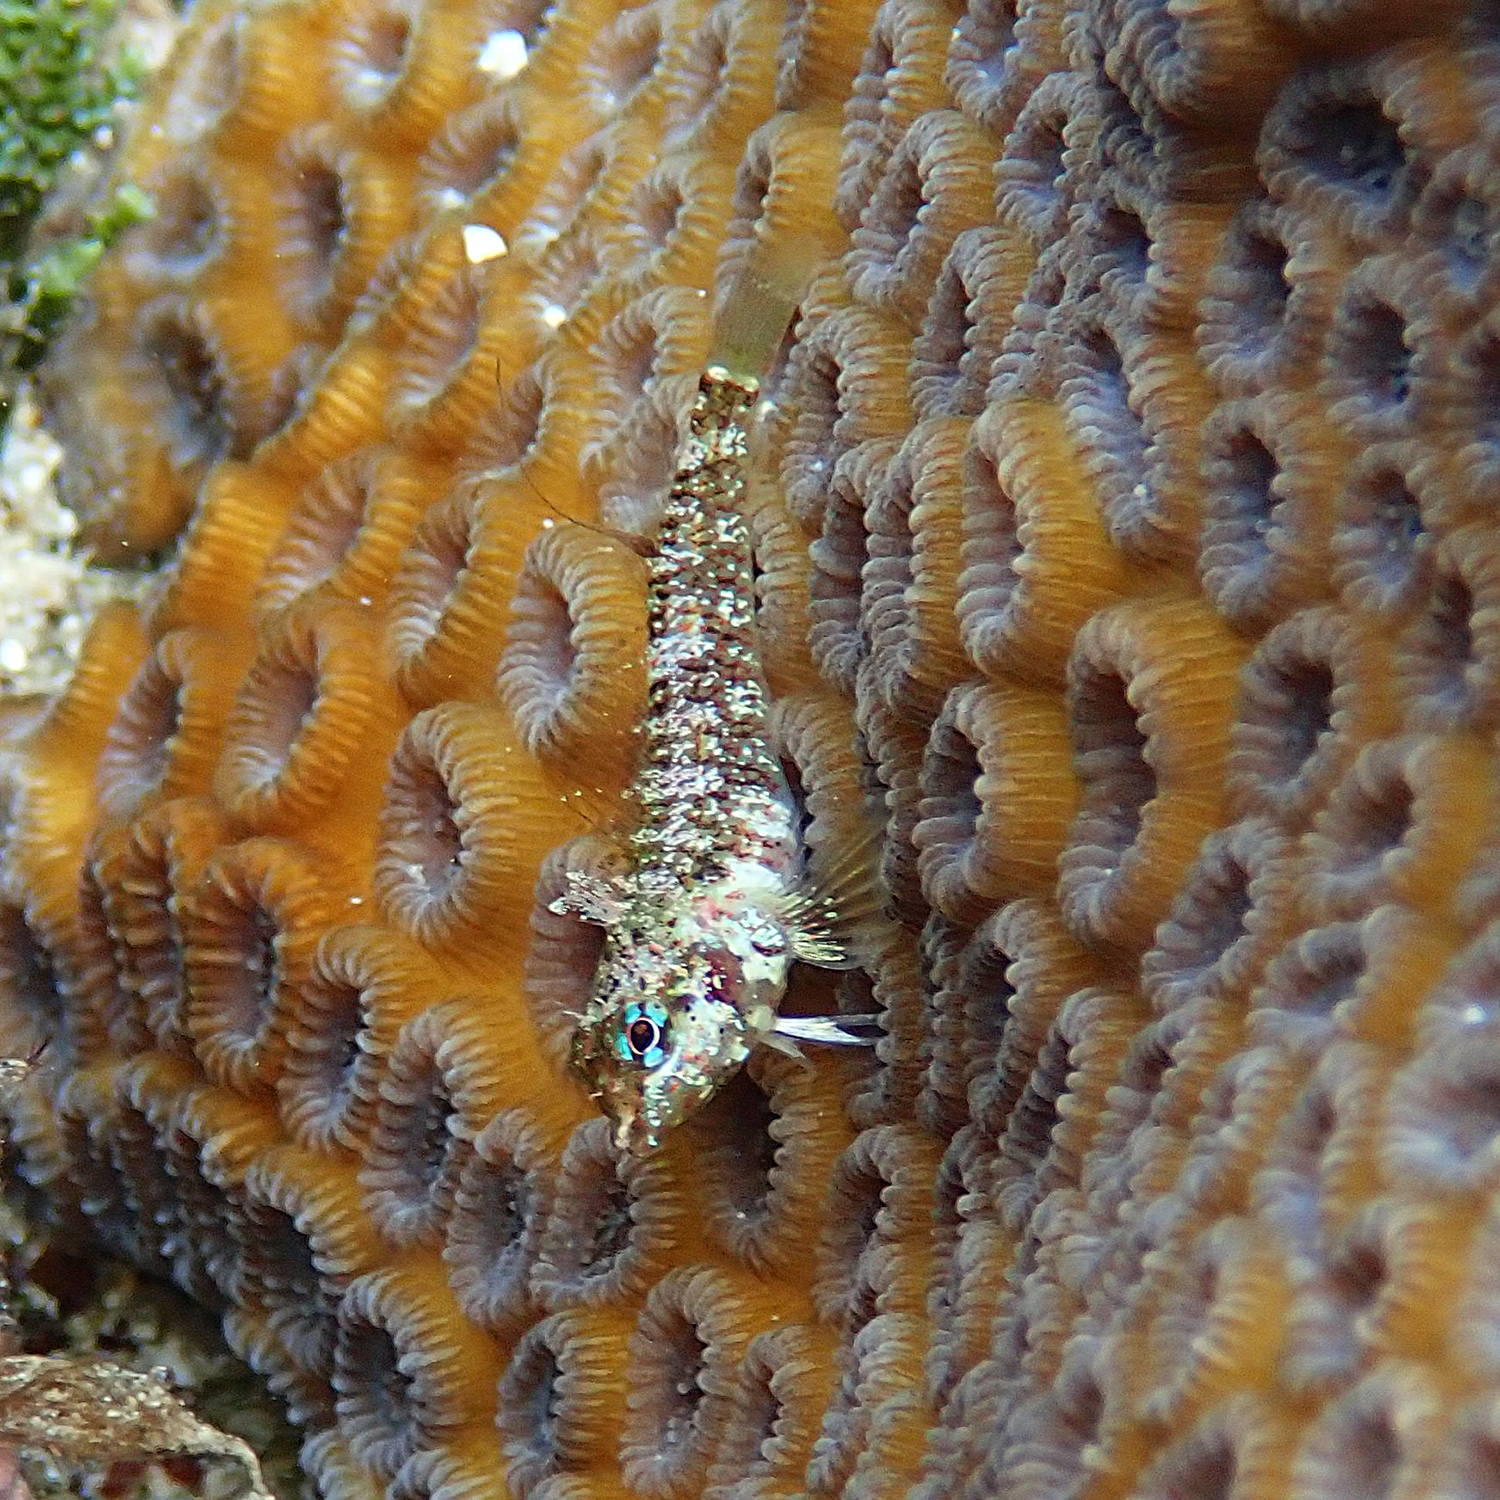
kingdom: Animalia
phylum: Chordata
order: Perciformes
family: Tripterygiidae
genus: Enneapterygius
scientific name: Enneapterygius rufopileus
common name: Lord howe black-head triplefin
